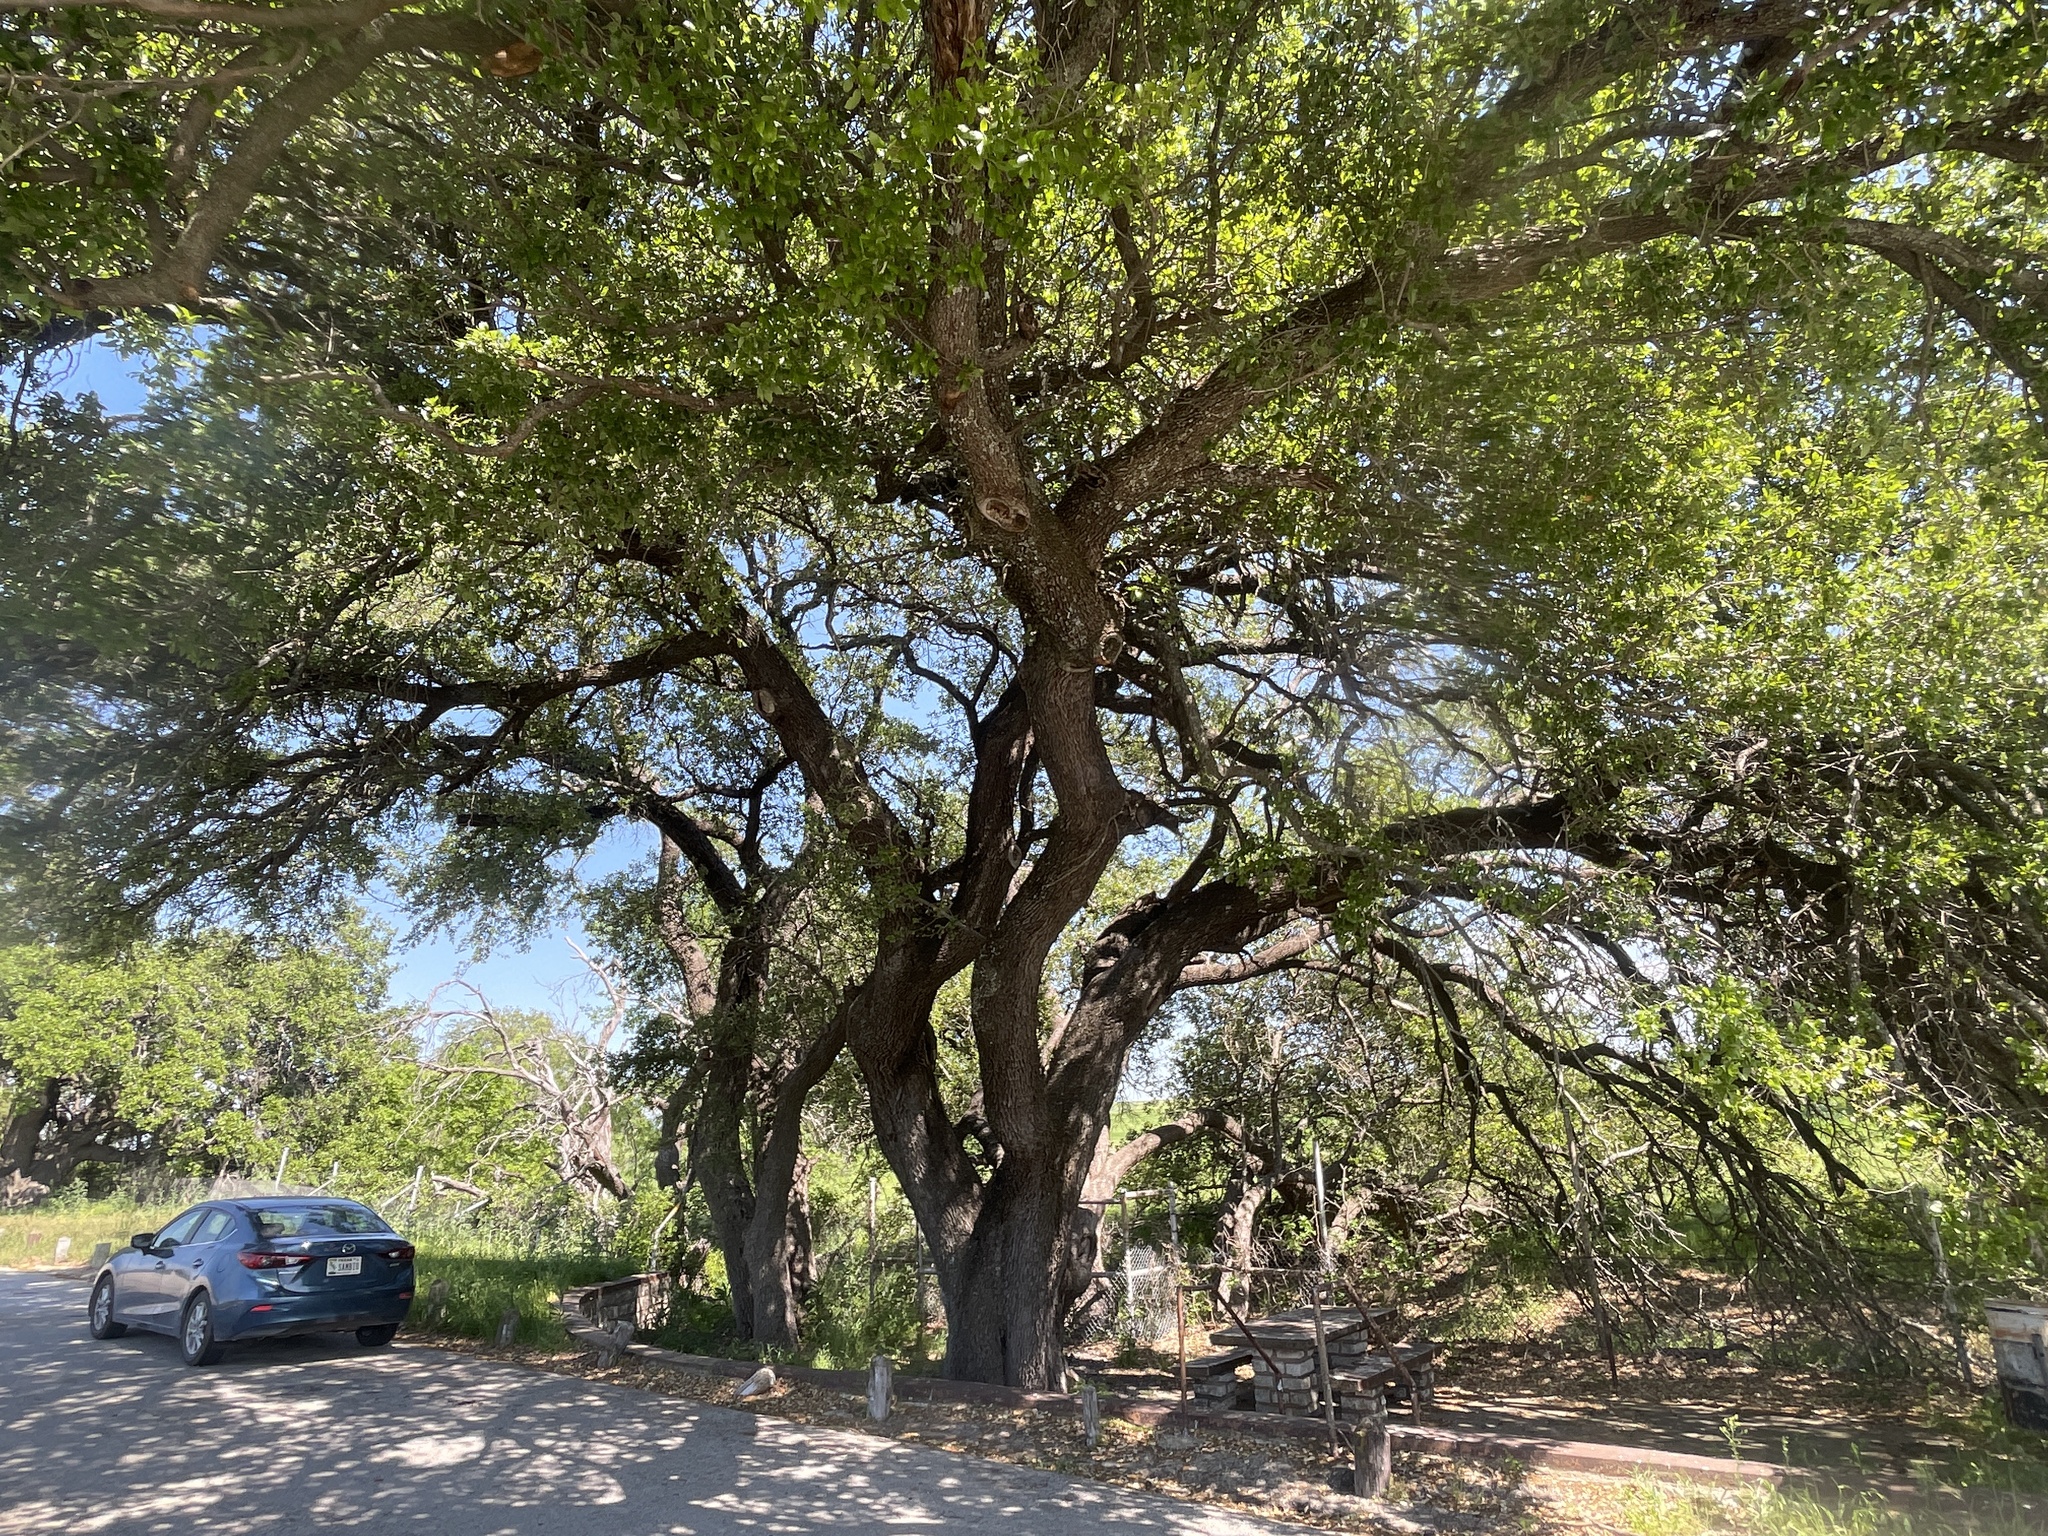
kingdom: Plantae
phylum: Tracheophyta
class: Magnoliopsida
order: Fagales
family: Fagaceae
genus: Quercus
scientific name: Quercus fusiformis
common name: Texas live oak
